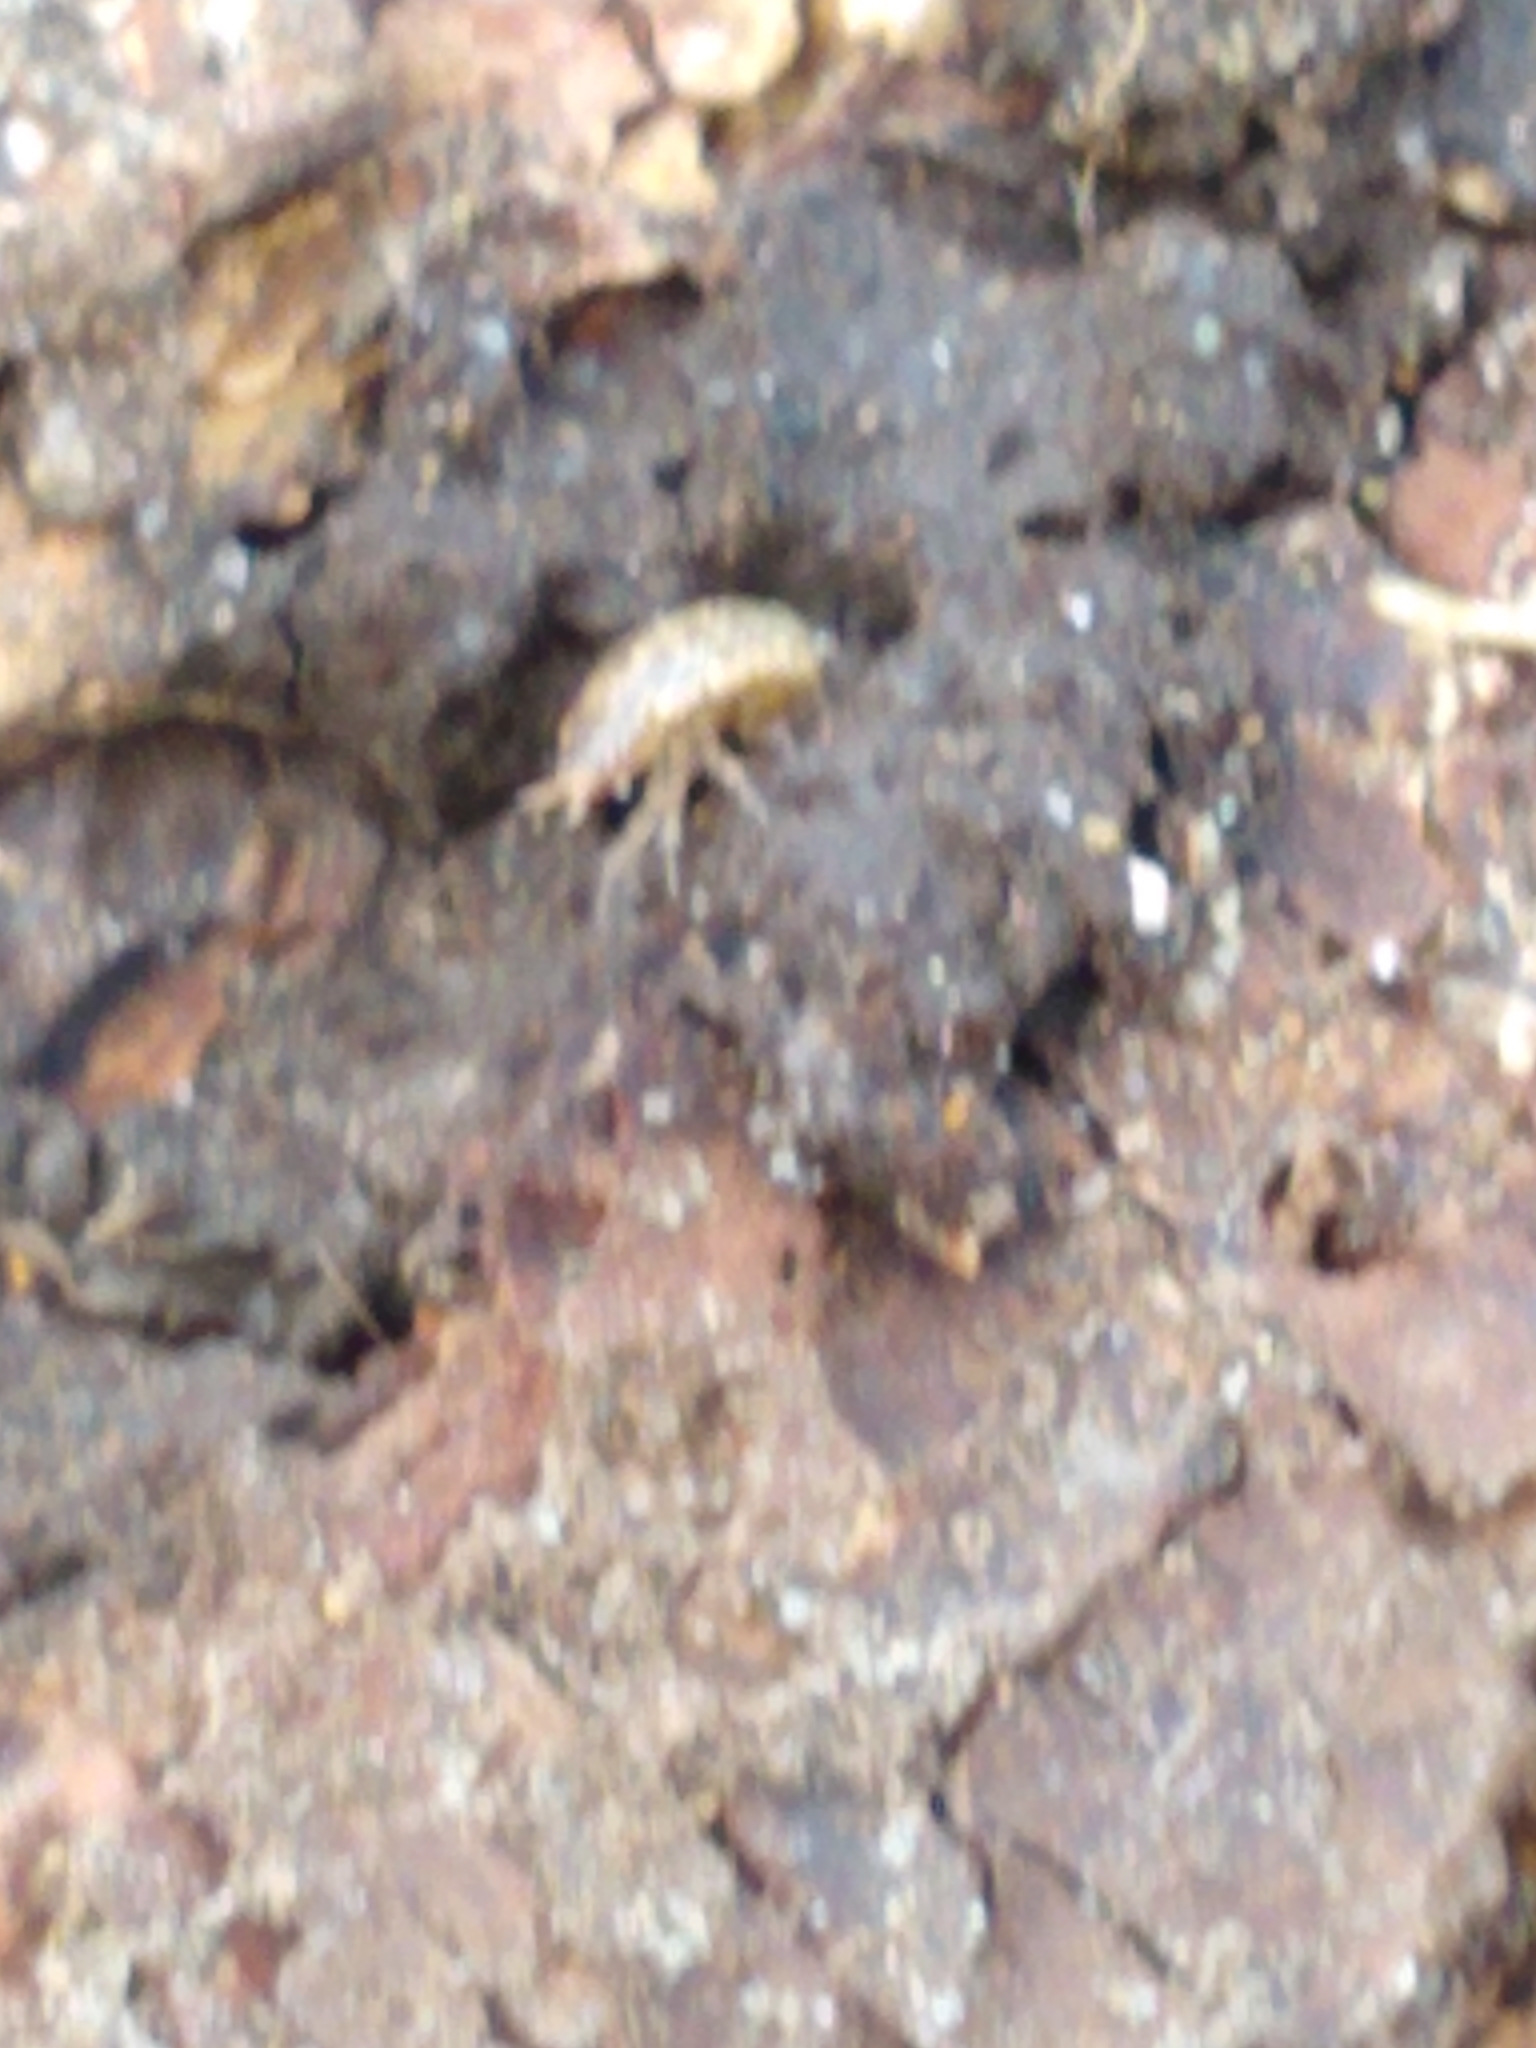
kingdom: Animalia
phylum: Arthropoda
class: Malacostraca
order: Isopoda
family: Philosciidae
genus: Philoscia
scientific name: Philoscia muscorum
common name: Common striped woodlouse
